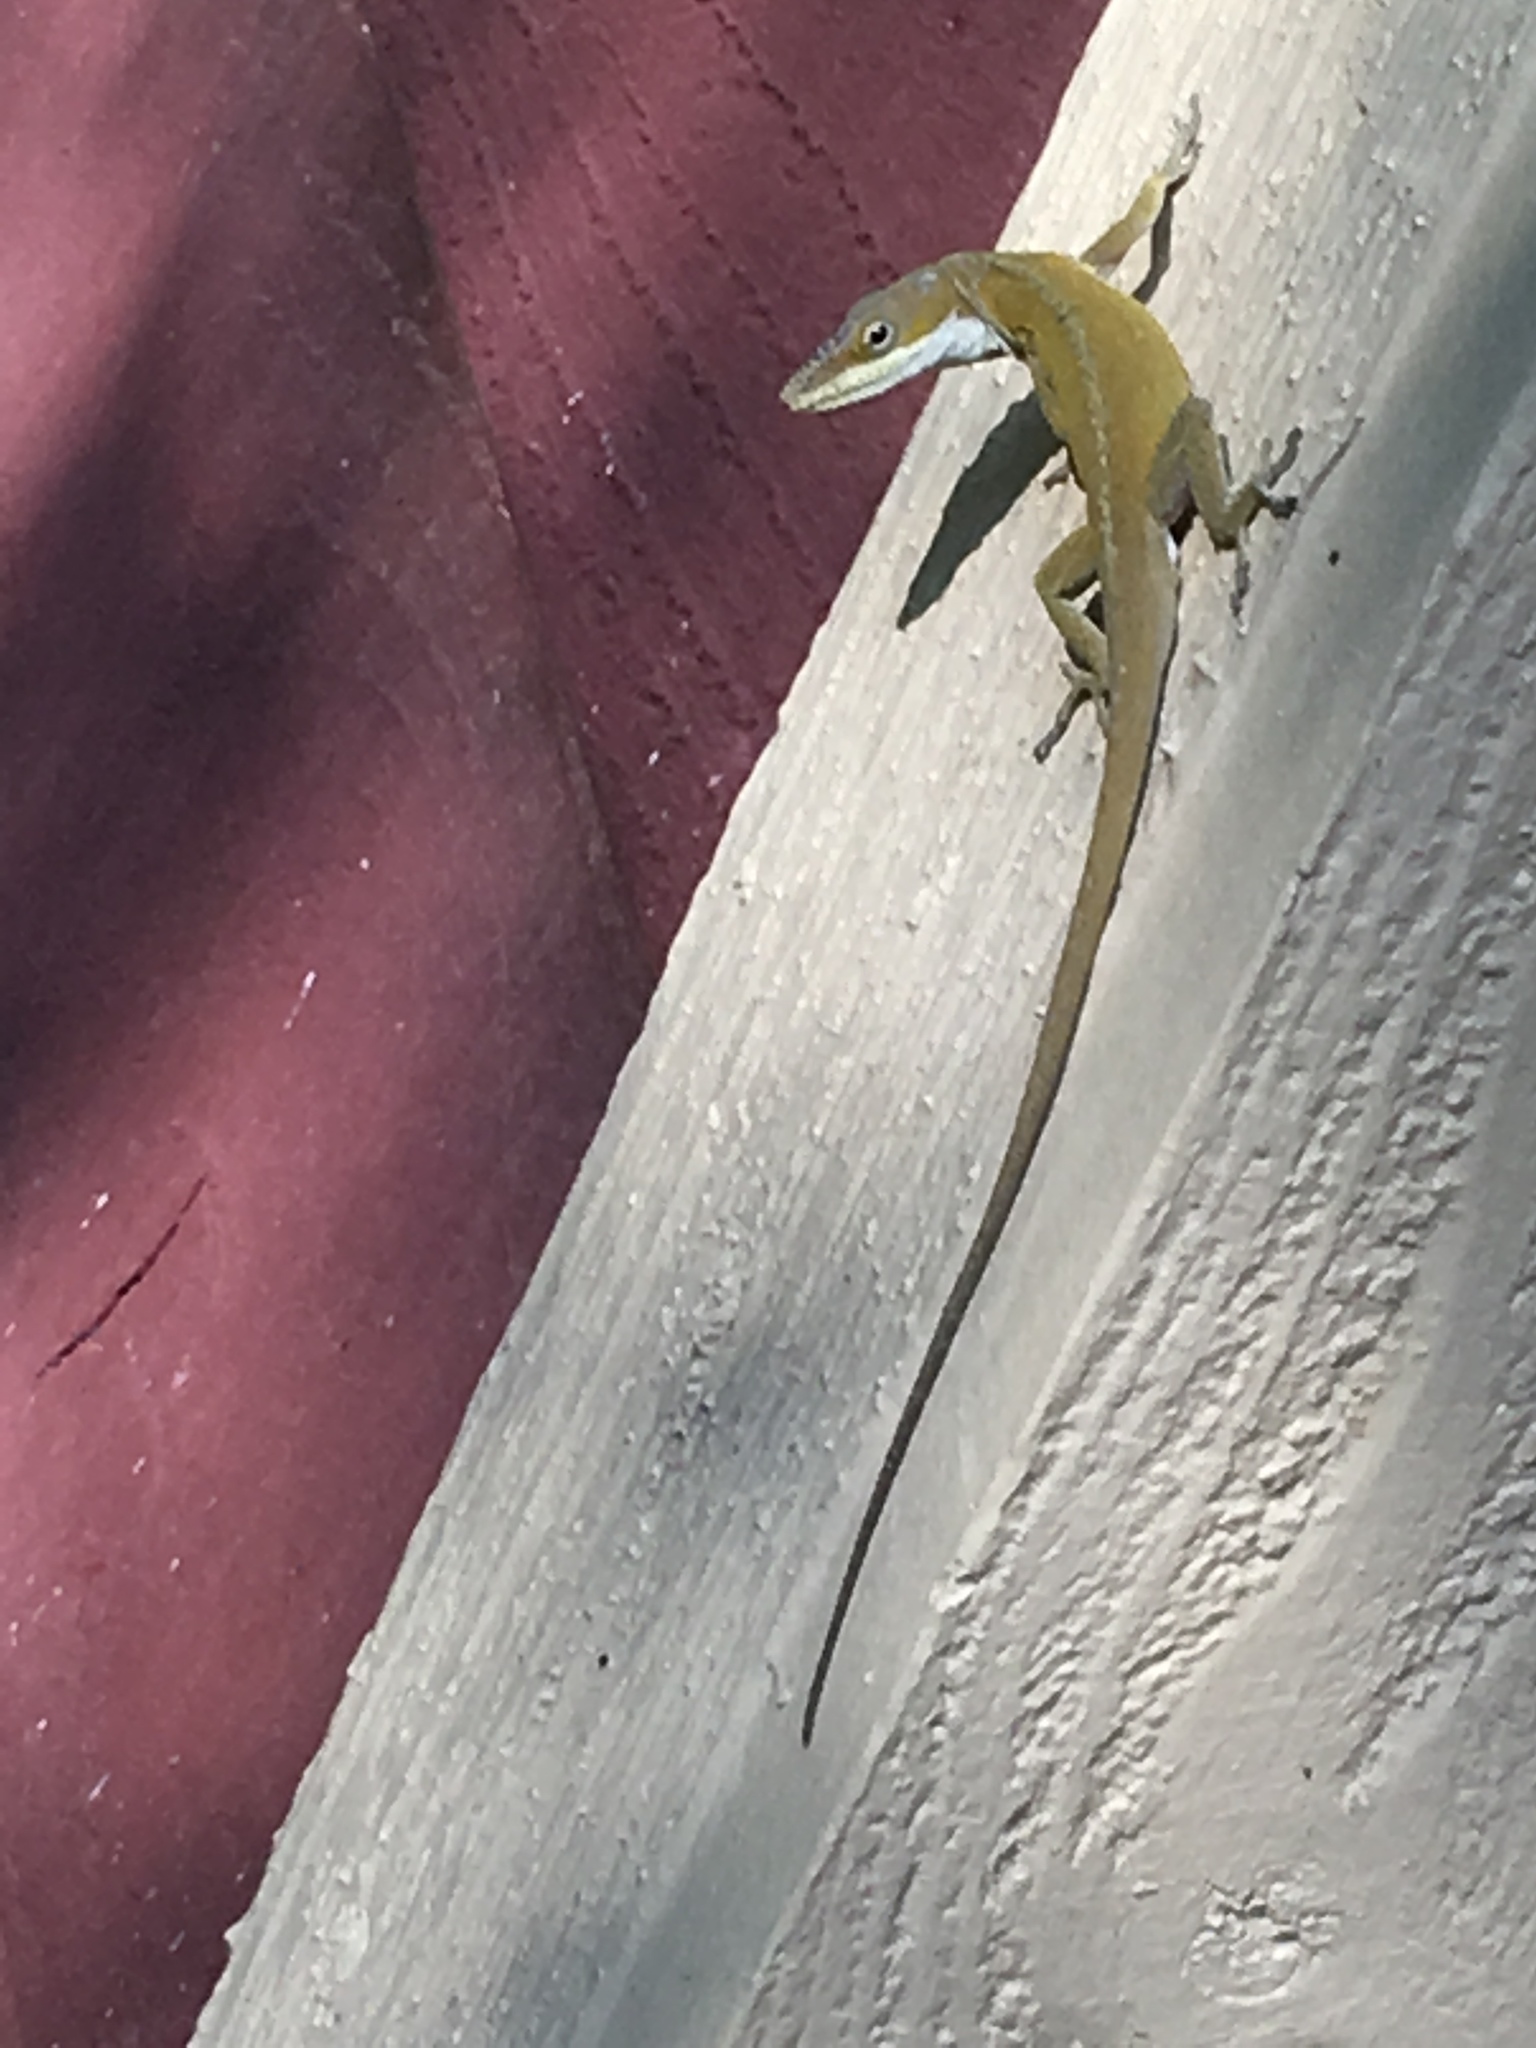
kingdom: Animalia
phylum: Chordata
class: Squamata
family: Dactyloidae
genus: Anolis
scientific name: Anolis carolinensis
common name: Green anole
